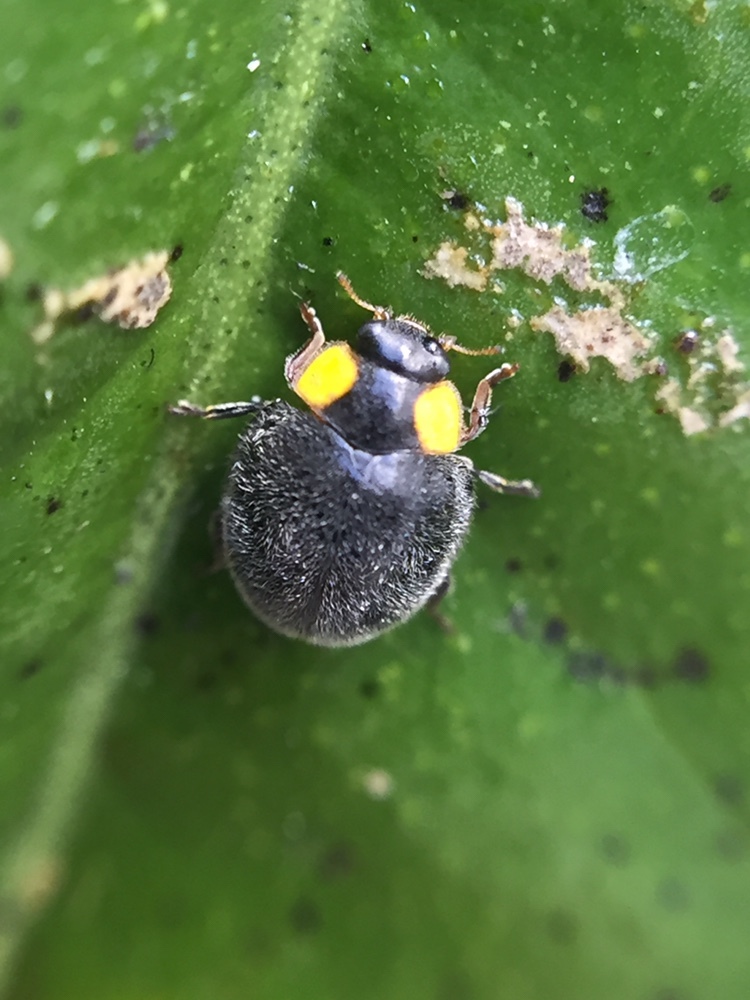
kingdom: Animalia
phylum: Arthropoda
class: Insecta
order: Coleoptera
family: Coccinellidae
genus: Scymnodes
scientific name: Scymnodes lividigaster
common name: Yellowshouldered lady beetle
